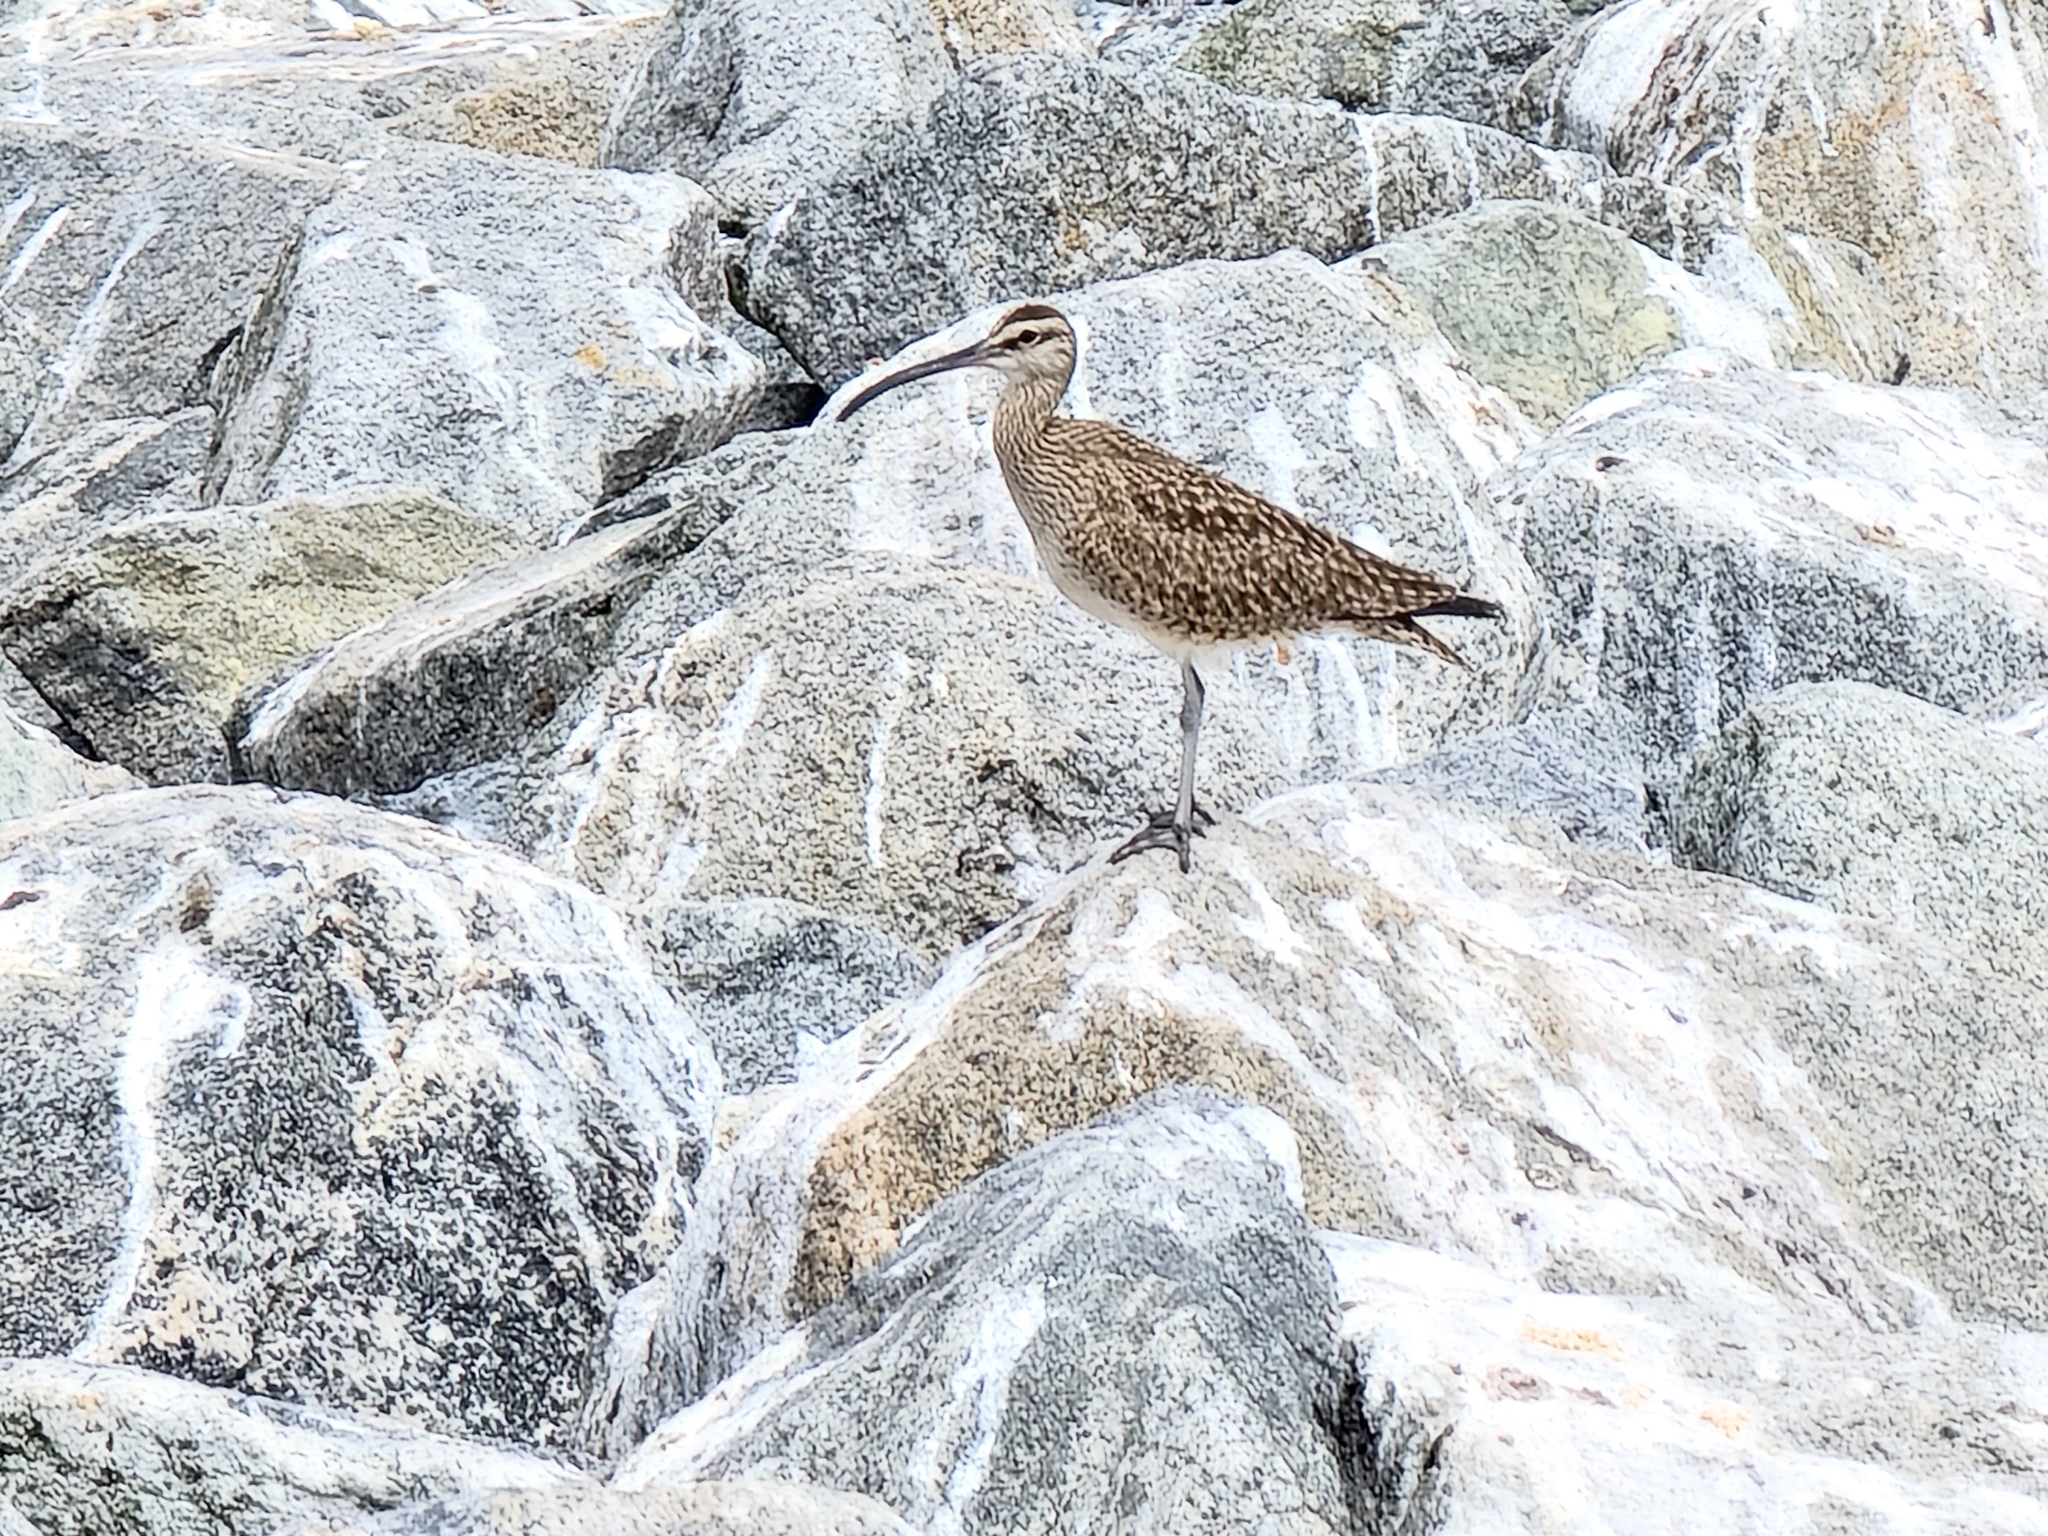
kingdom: Animalia
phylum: Chordata
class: Aves
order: Charadriiformes
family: Scolopacidae
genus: Numenius
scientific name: Numenius phaeopus
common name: Whimbrel
